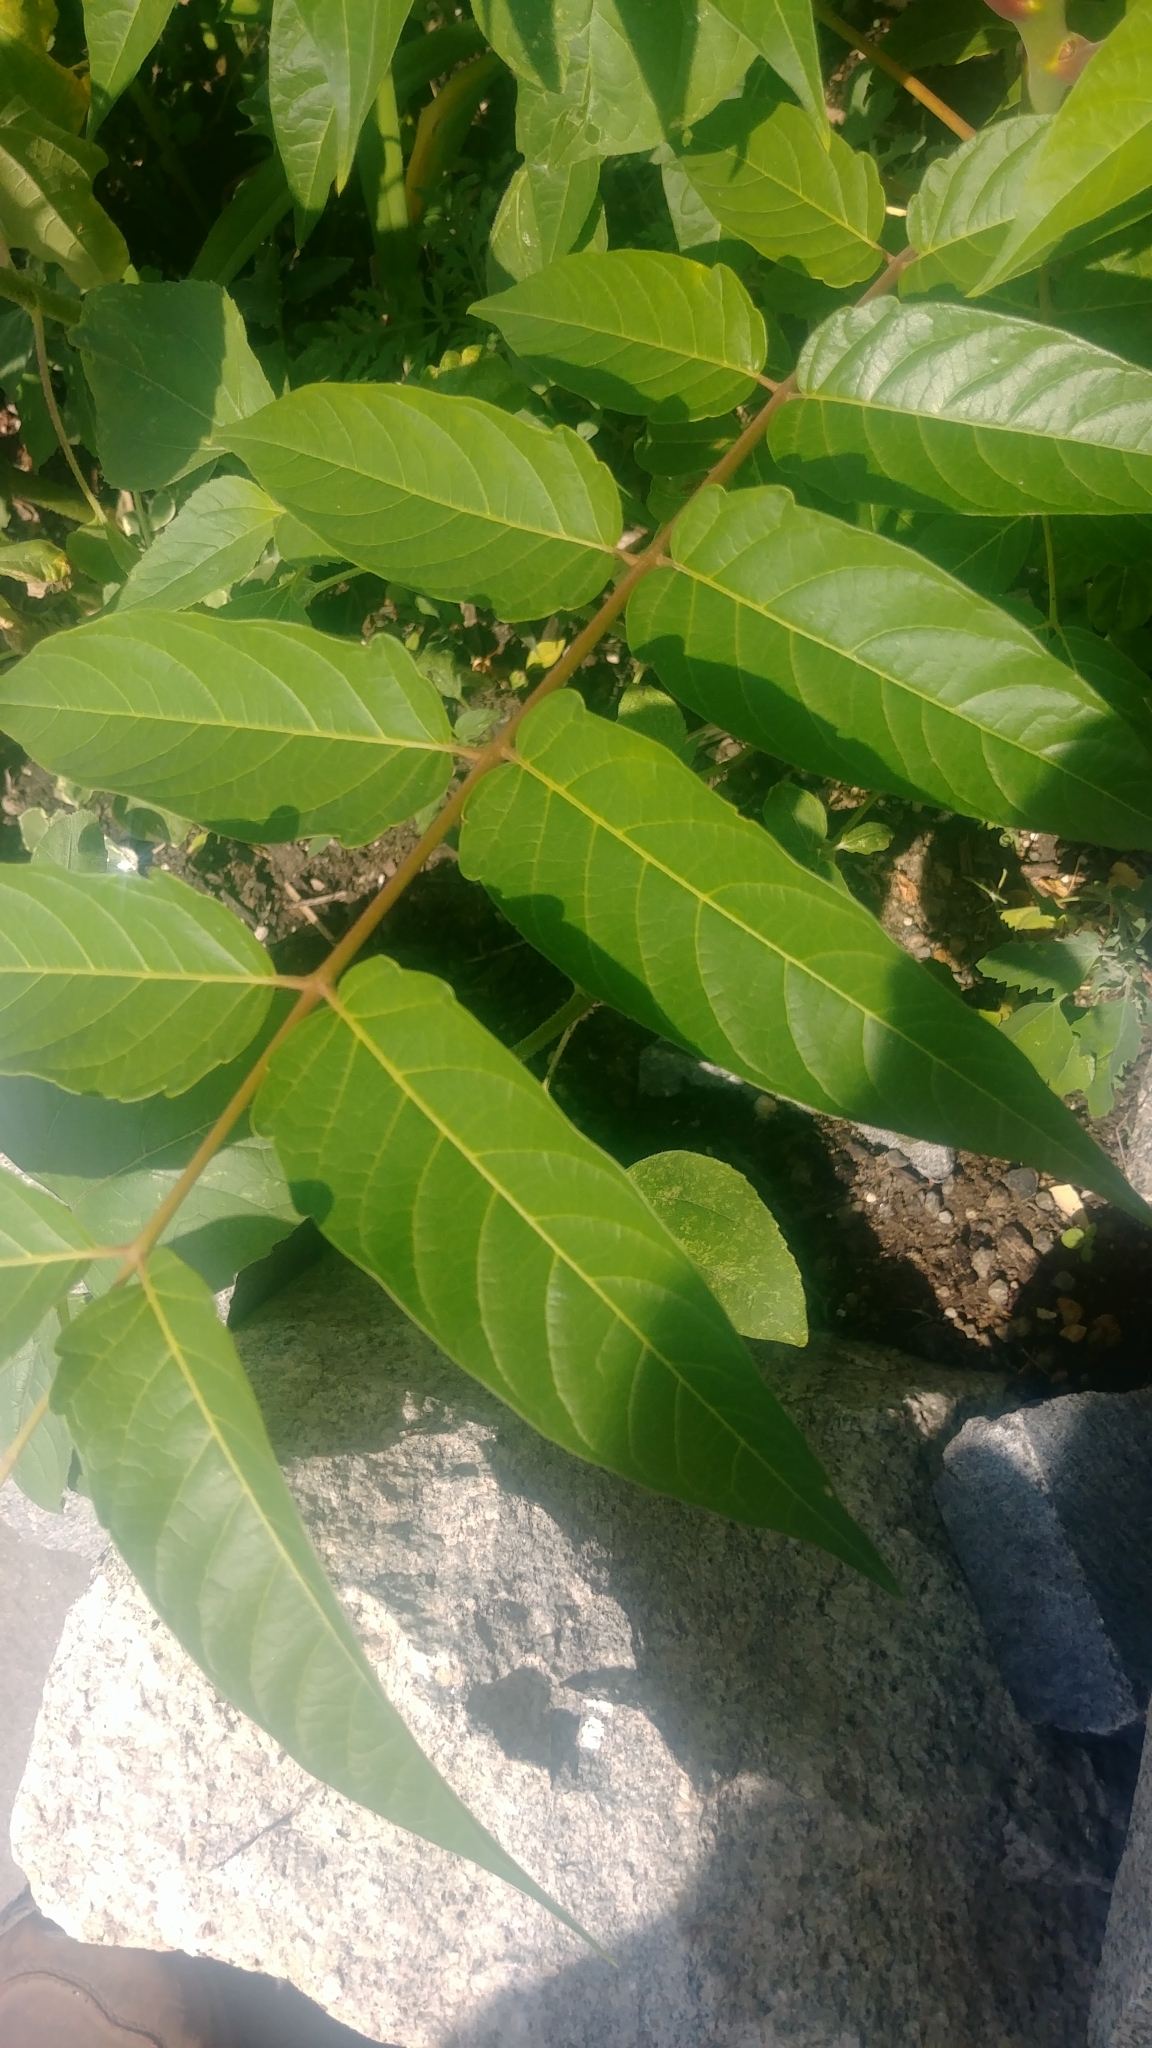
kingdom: Plantae
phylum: Tracheophyta
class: Magnoliopsida
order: Sapindales
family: Simaroubaceae
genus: Ailanthus
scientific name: Ailanthus altissima
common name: Tree-of-heaven
